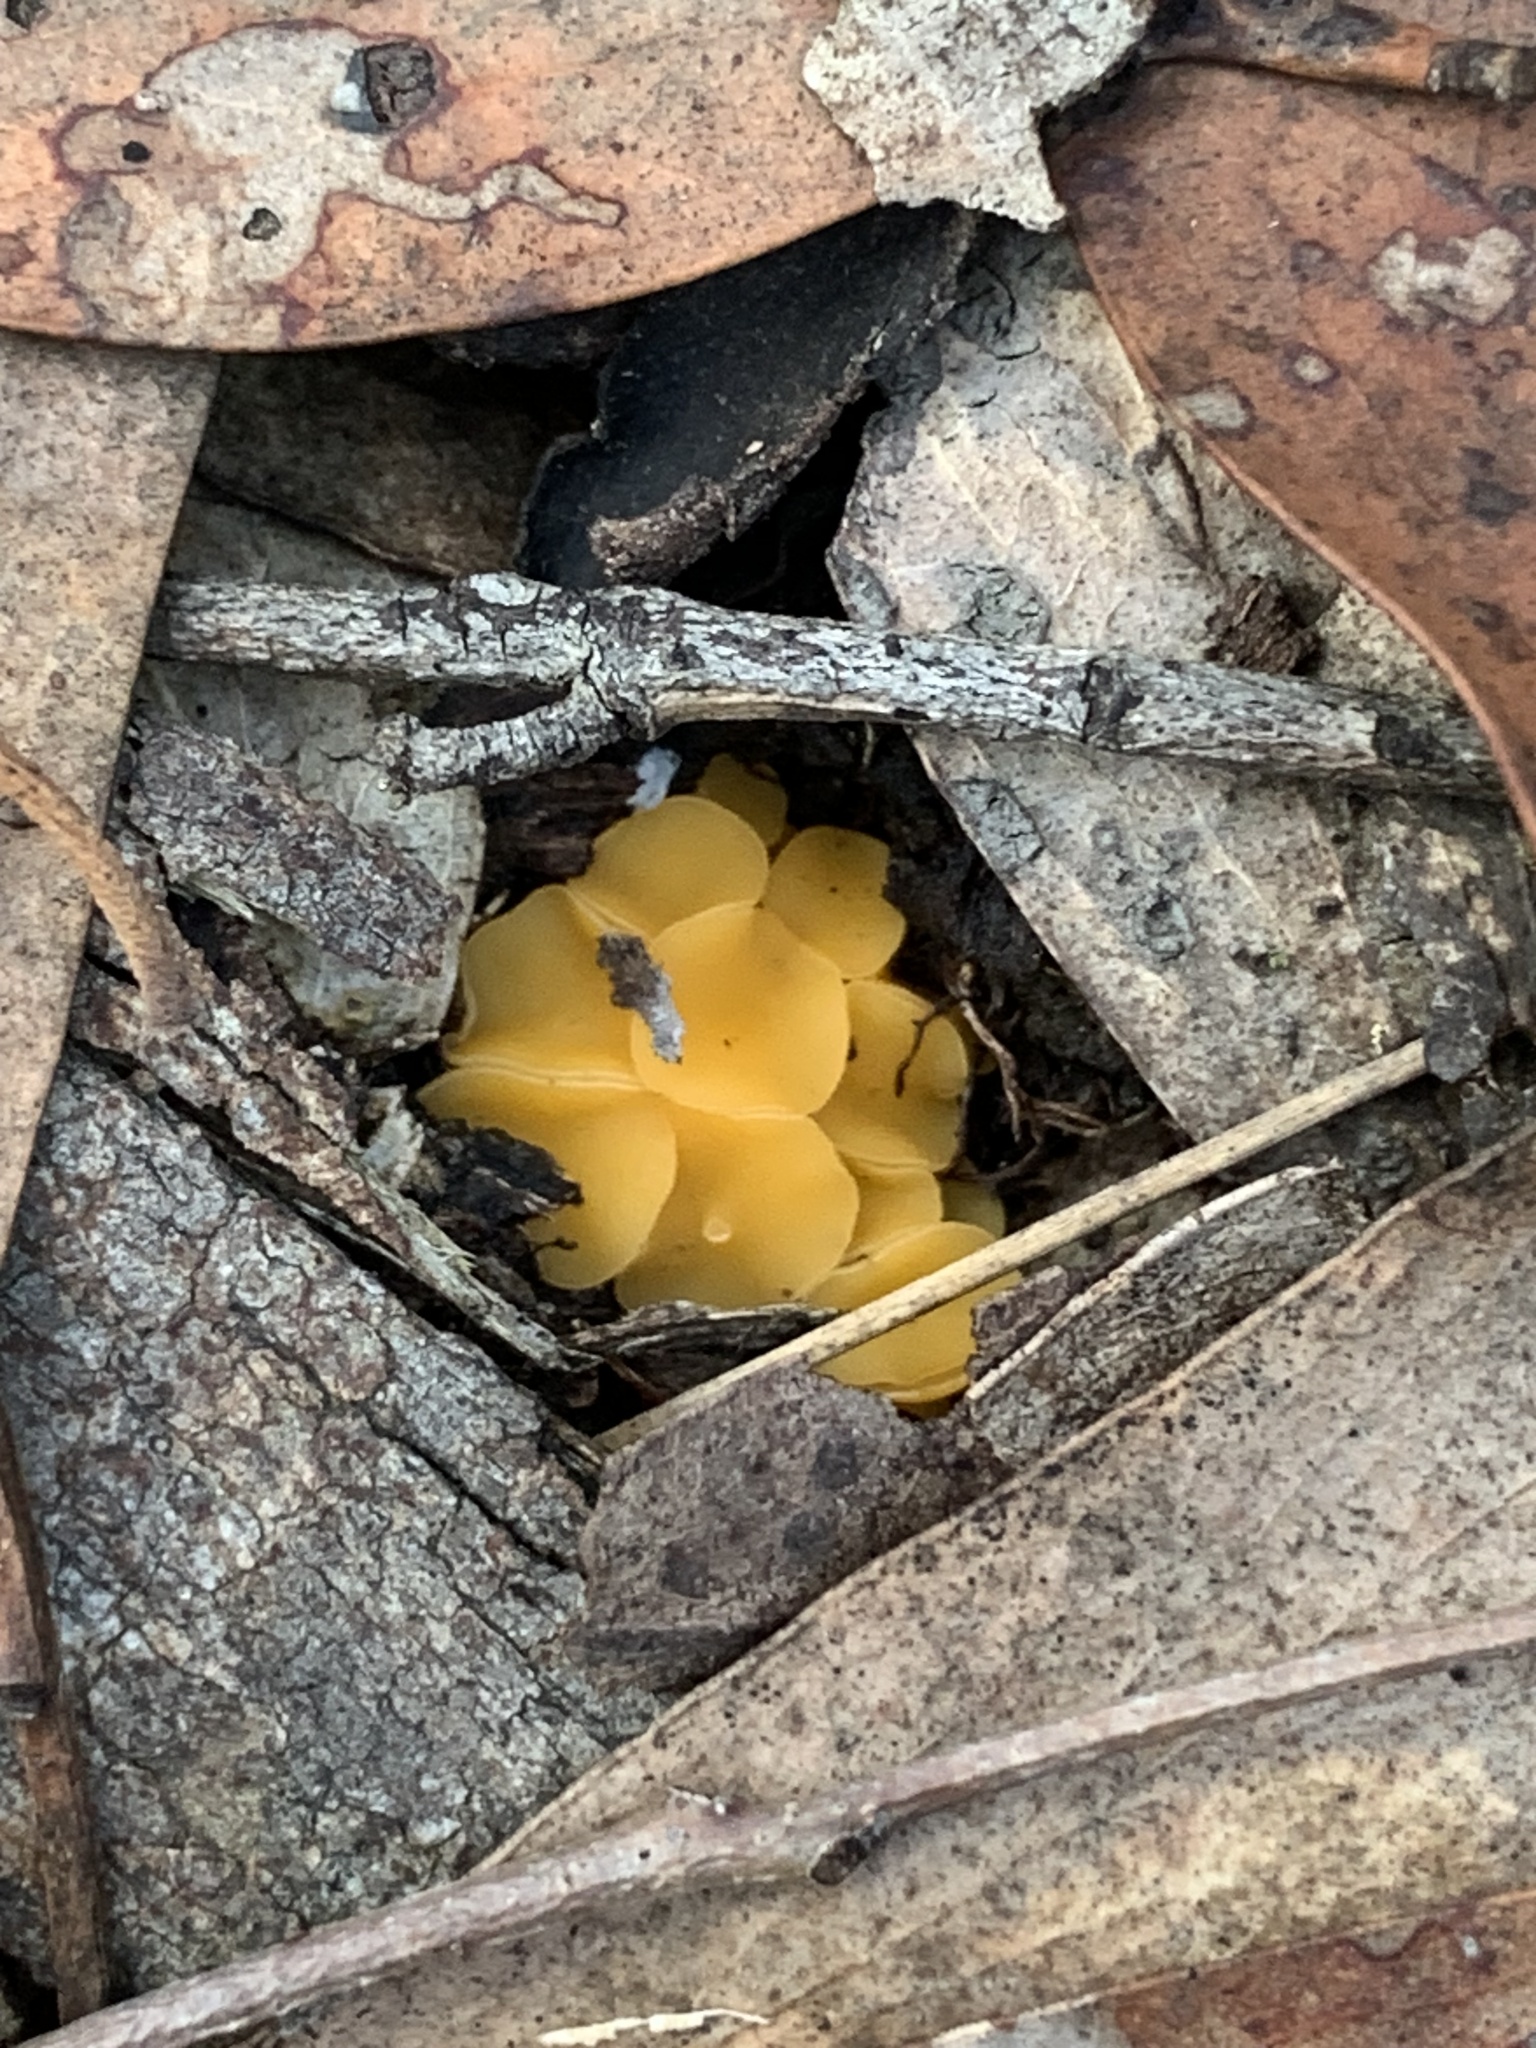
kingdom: Fungi
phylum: Ascomycota
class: Leotiomycetes
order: Helotiales
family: Helotiaceae
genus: Phaeohelotium
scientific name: Phaeohelotium baileyanum
